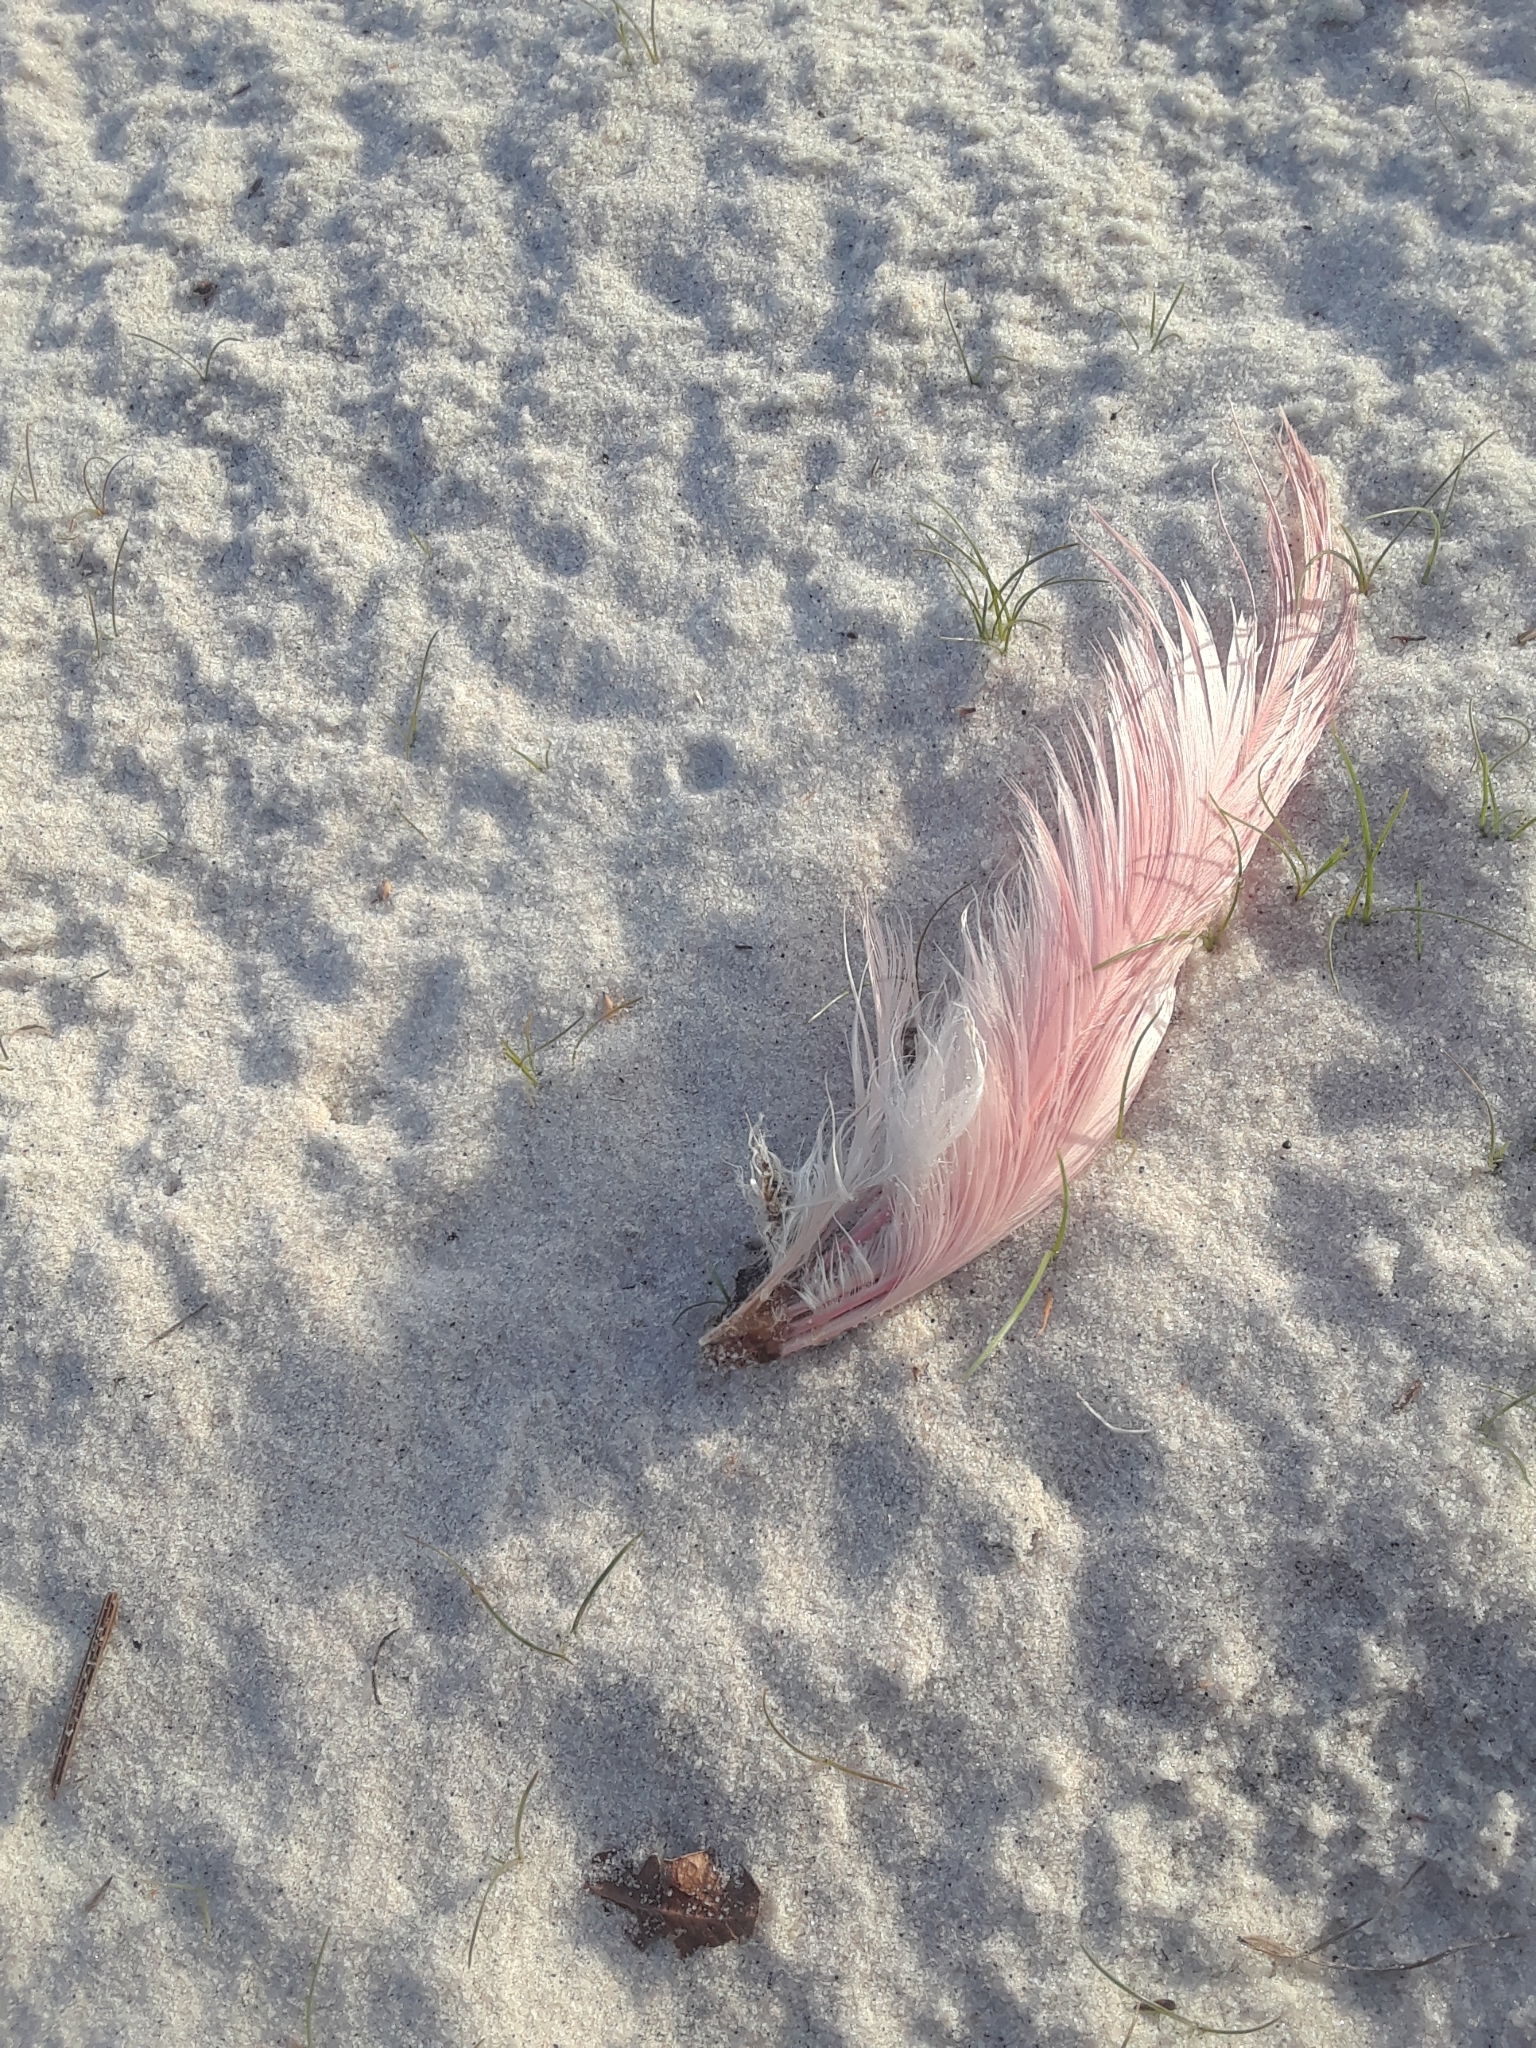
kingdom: Animalia
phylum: Chordata
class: Aves
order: Pelecaniformes
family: Threskiornithidae
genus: Platalea
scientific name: Platalea ajaja
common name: Roseate spoonbill
